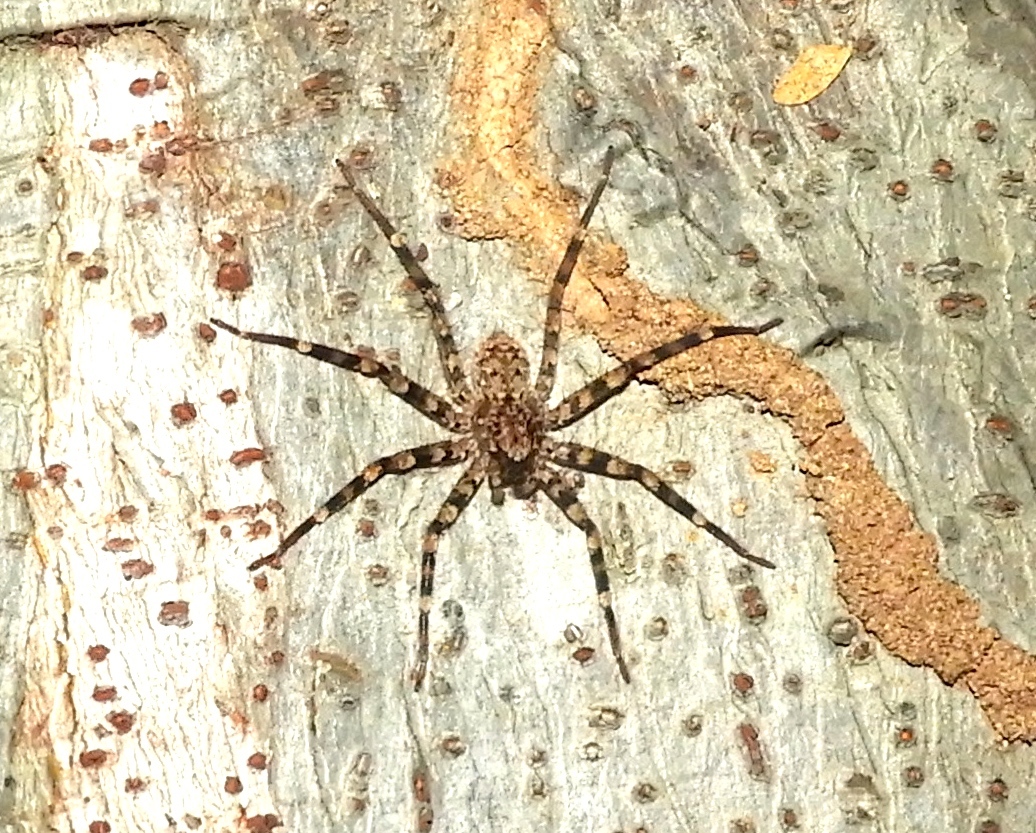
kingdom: Animalia
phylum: Arthropoda
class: Arachnida
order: Araneae
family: Selenopidae
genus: Selenops
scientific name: Selenops
